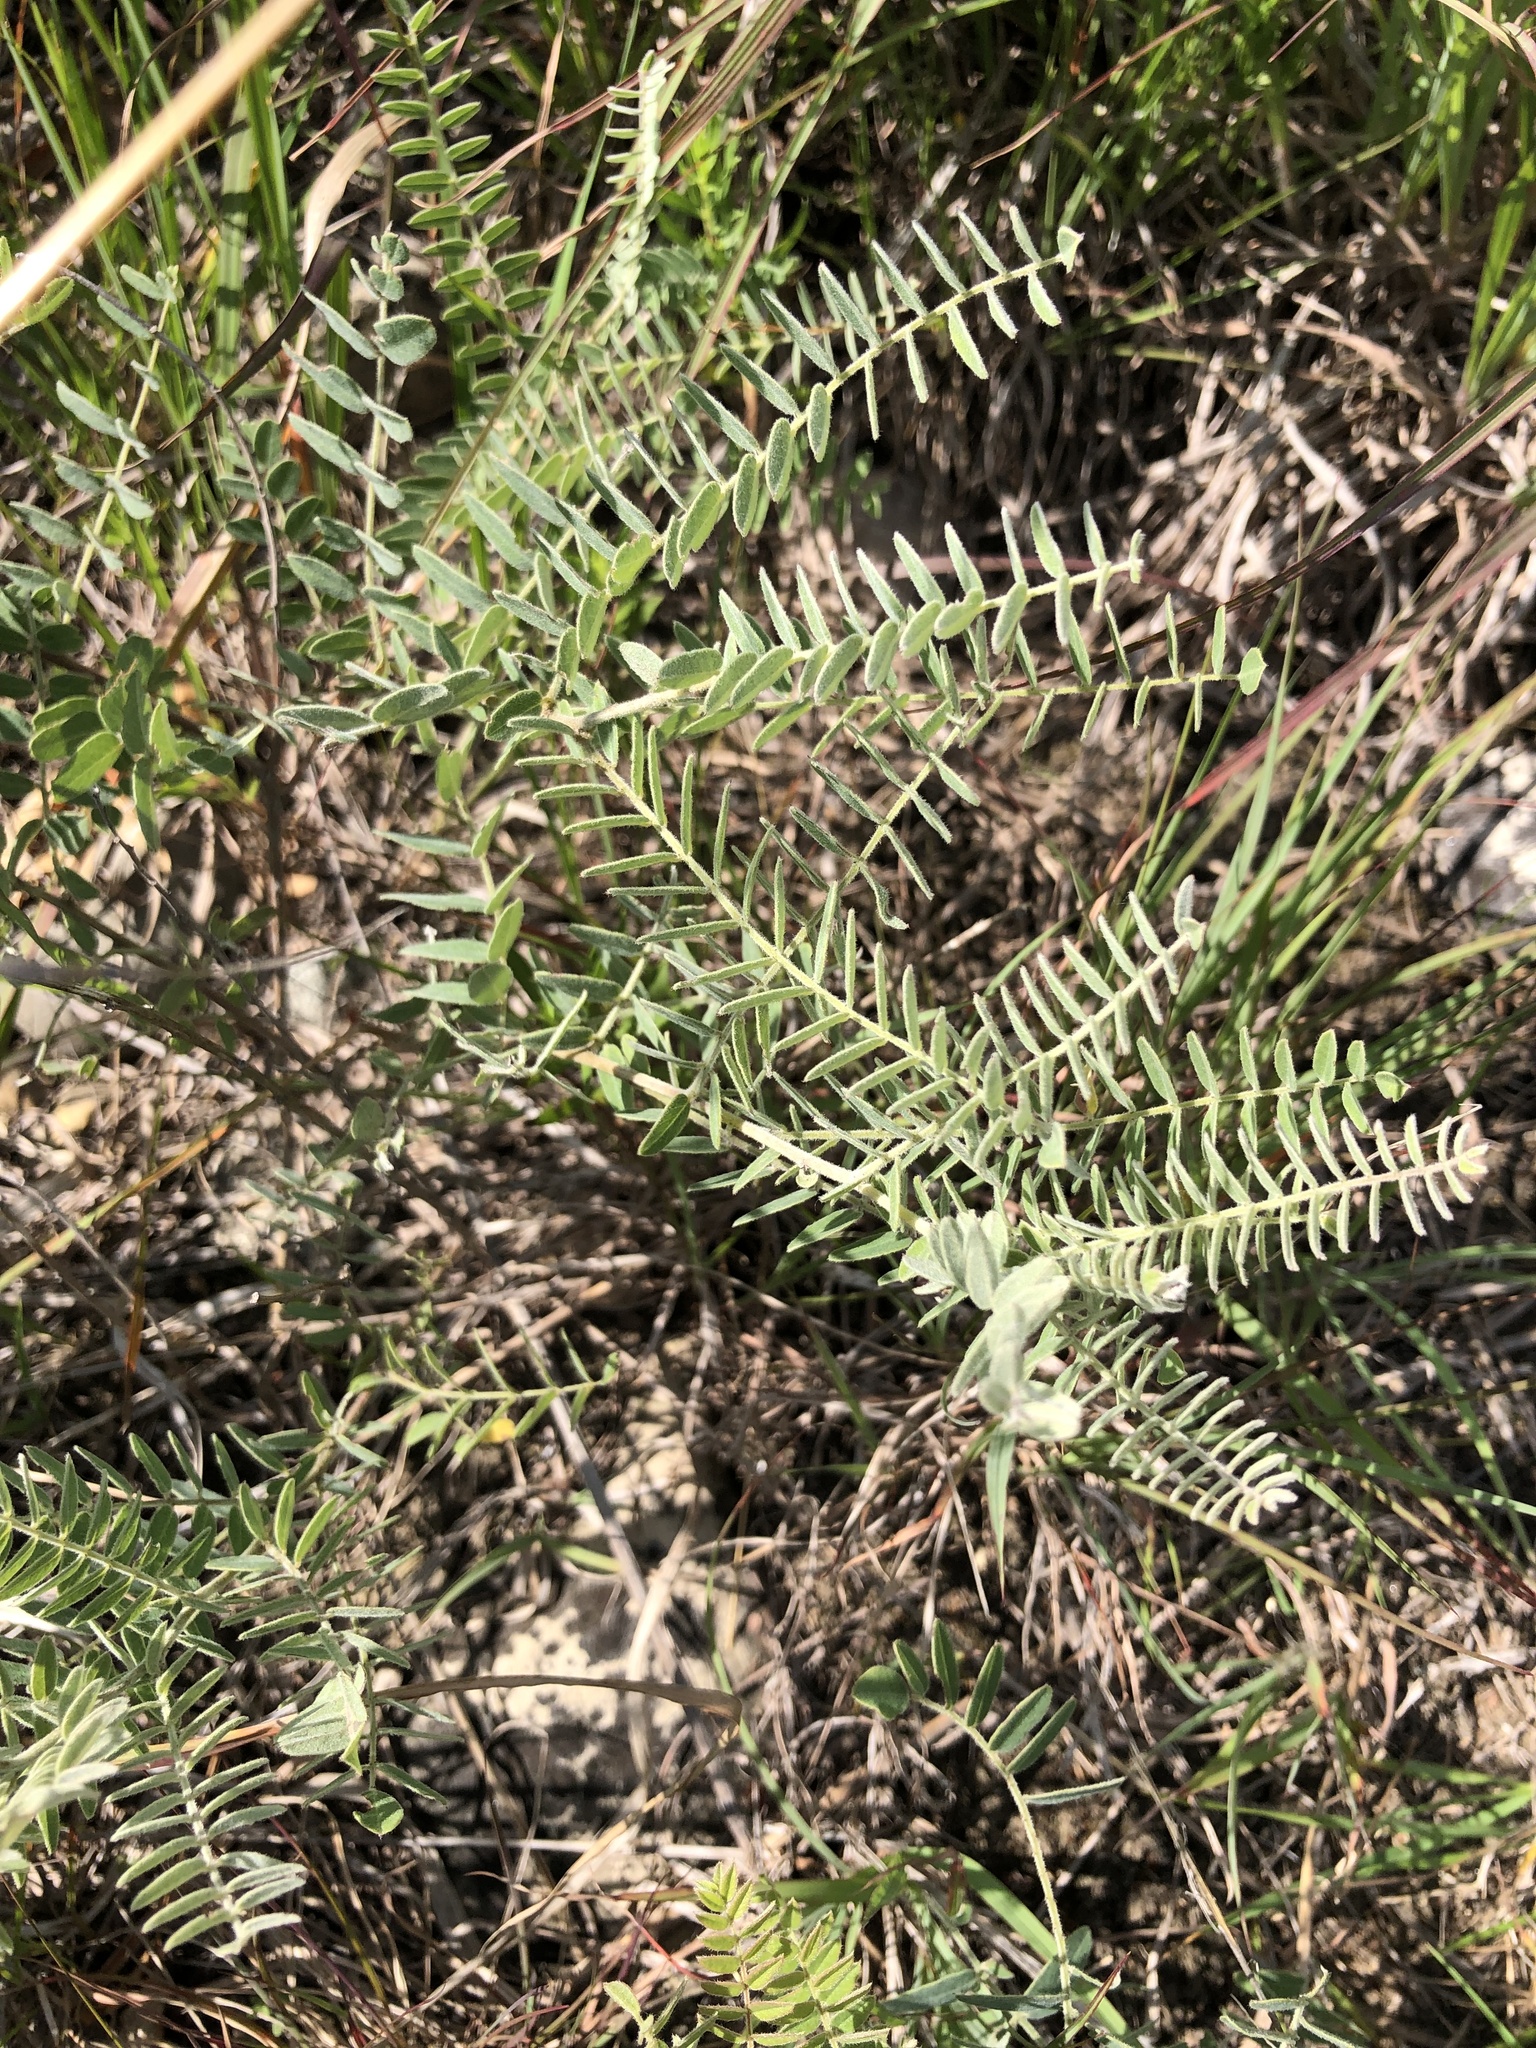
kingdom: Plantae
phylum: Tracheophyta
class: Magnoliopsida
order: Fabales
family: Fabaceae
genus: Amorpha
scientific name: Amorpha canescens
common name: Leadplant
